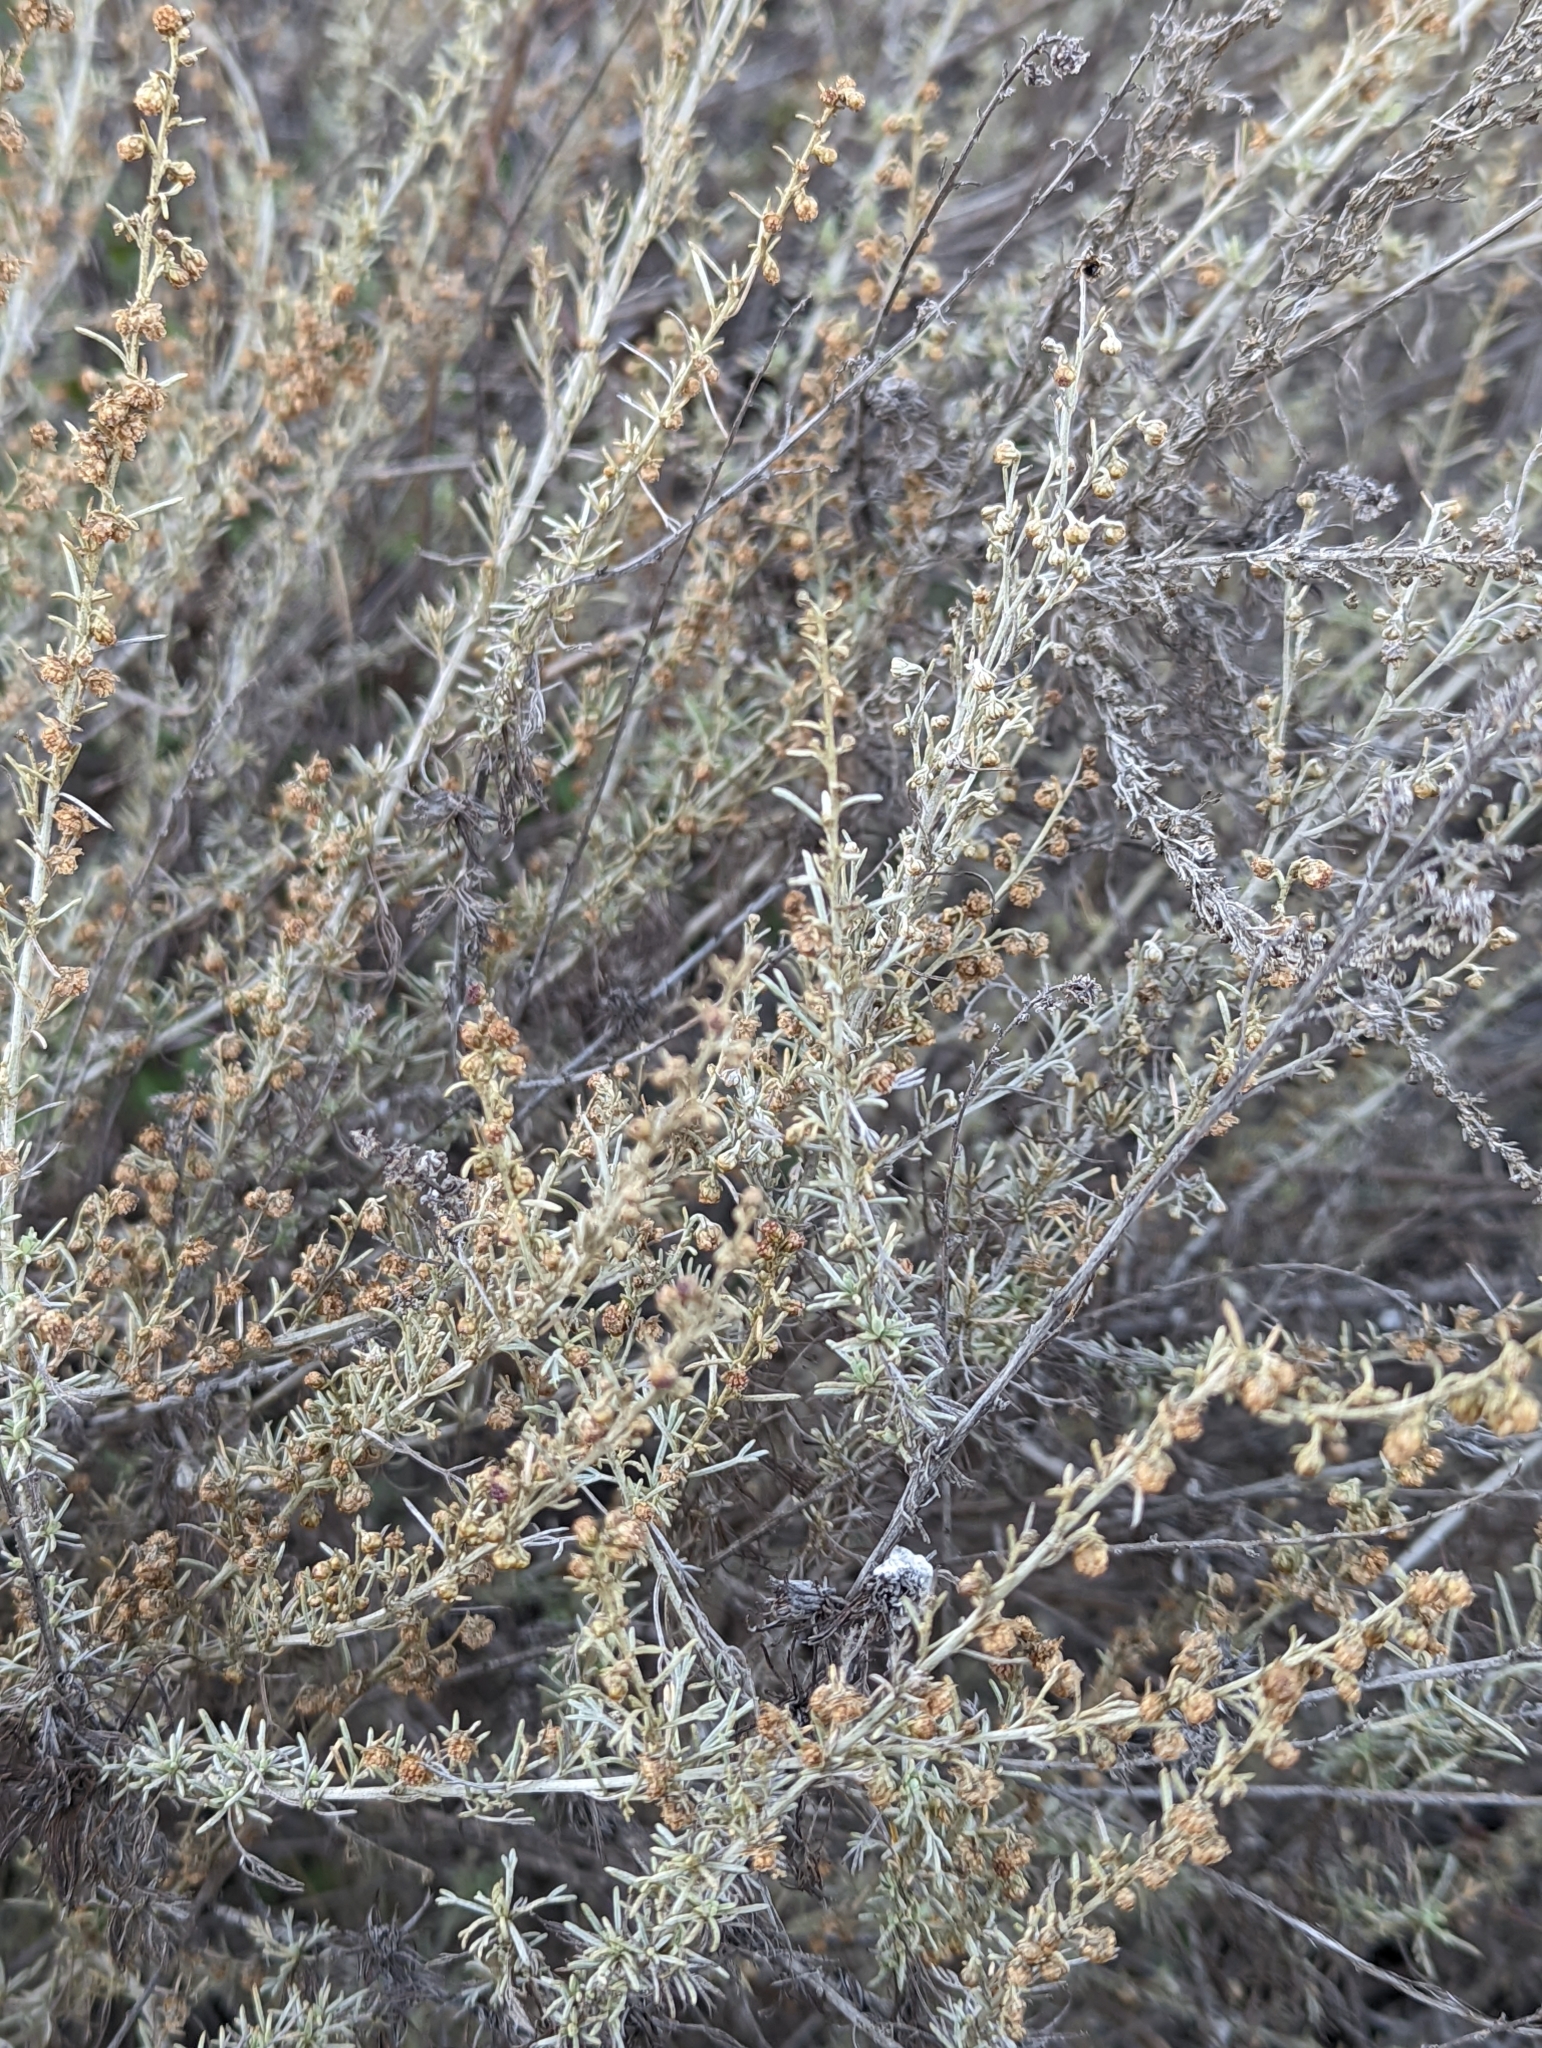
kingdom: Plantae
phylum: Tracheophyta
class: Magnoliopsida
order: Asterales
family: Asteraceae
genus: Artemisia
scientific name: Artemisia californica
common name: California sagebrush
